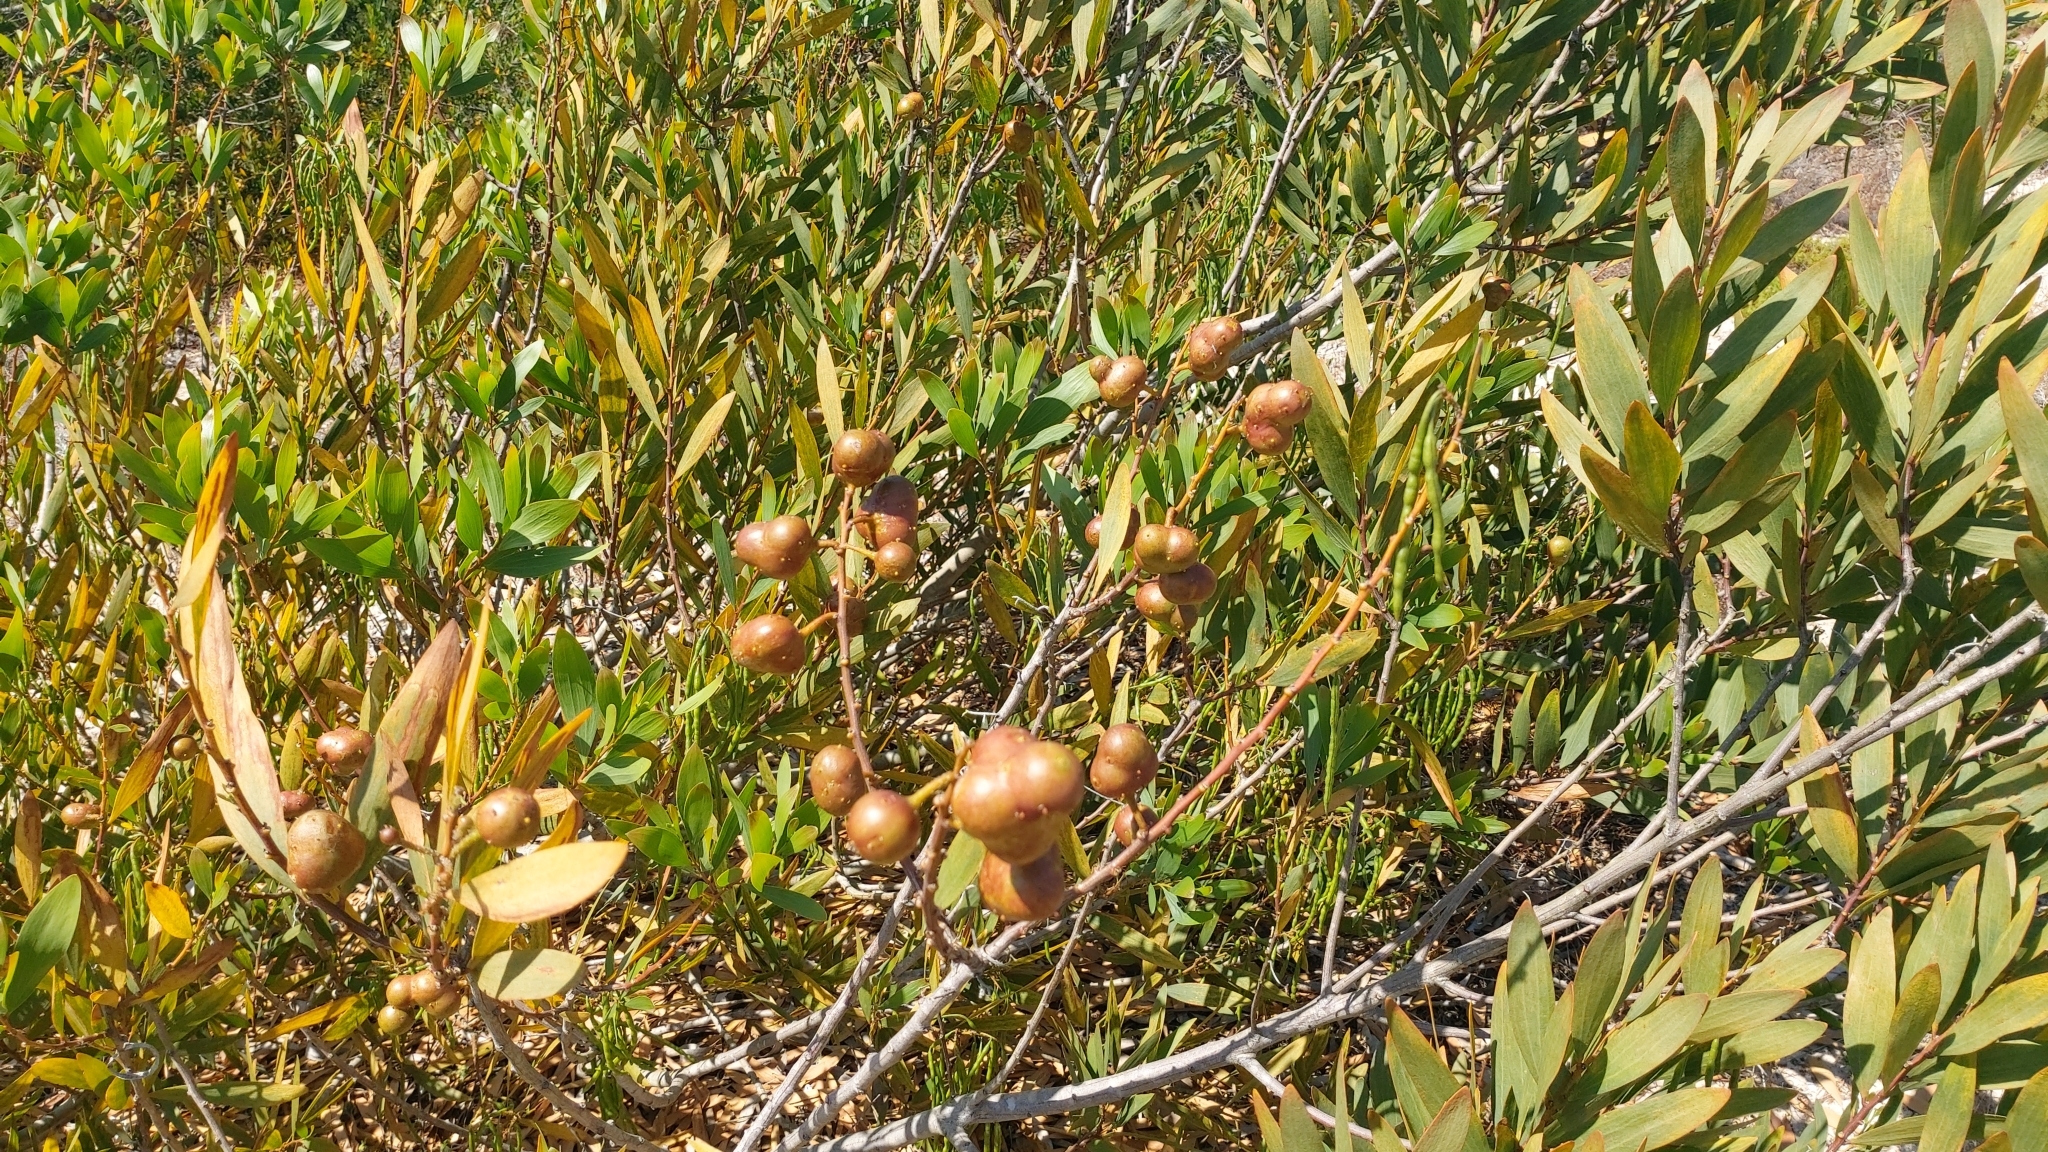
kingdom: Animalia
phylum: Arthropoda
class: Insecta
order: Hymenoptera
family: Pteromalidae
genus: Trichilogaster
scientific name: Trichilogaster acaciaelongifoliae
